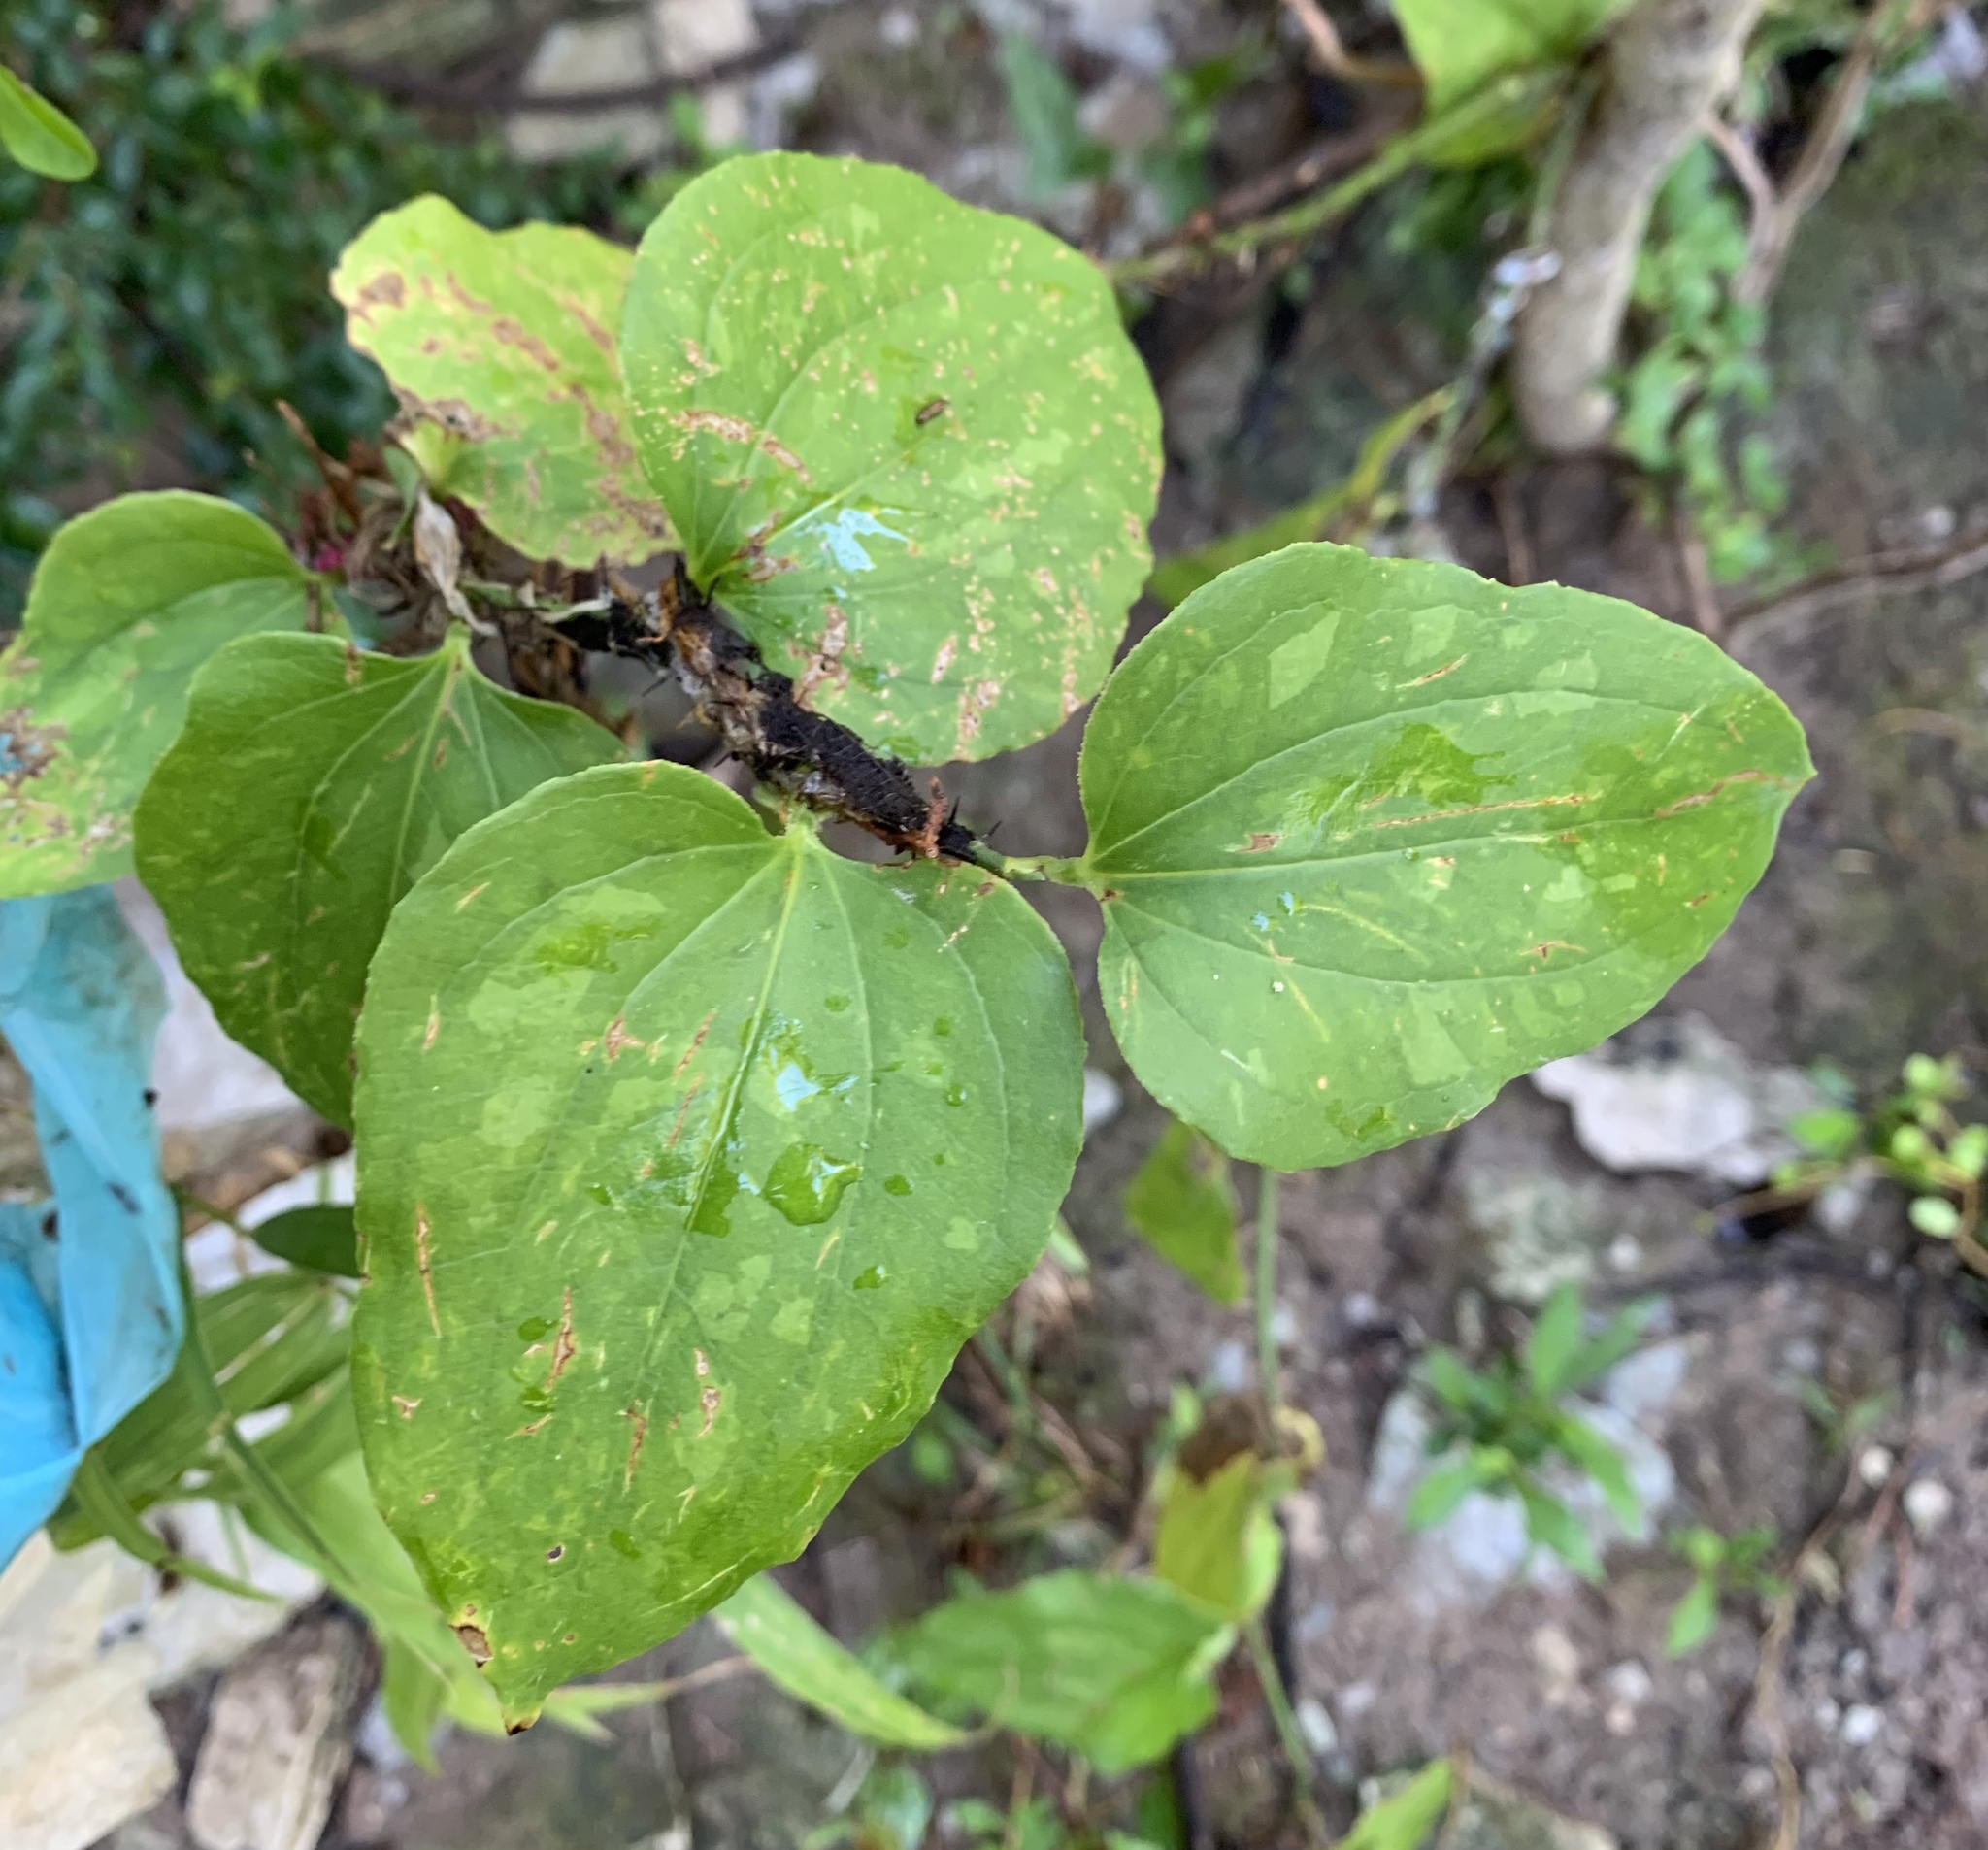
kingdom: Plantae
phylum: Tracheophyta
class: Liliopsida
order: Liliales
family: Smilacaceae
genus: Smilax
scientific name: Smilax tamnoides
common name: Hellfetter
